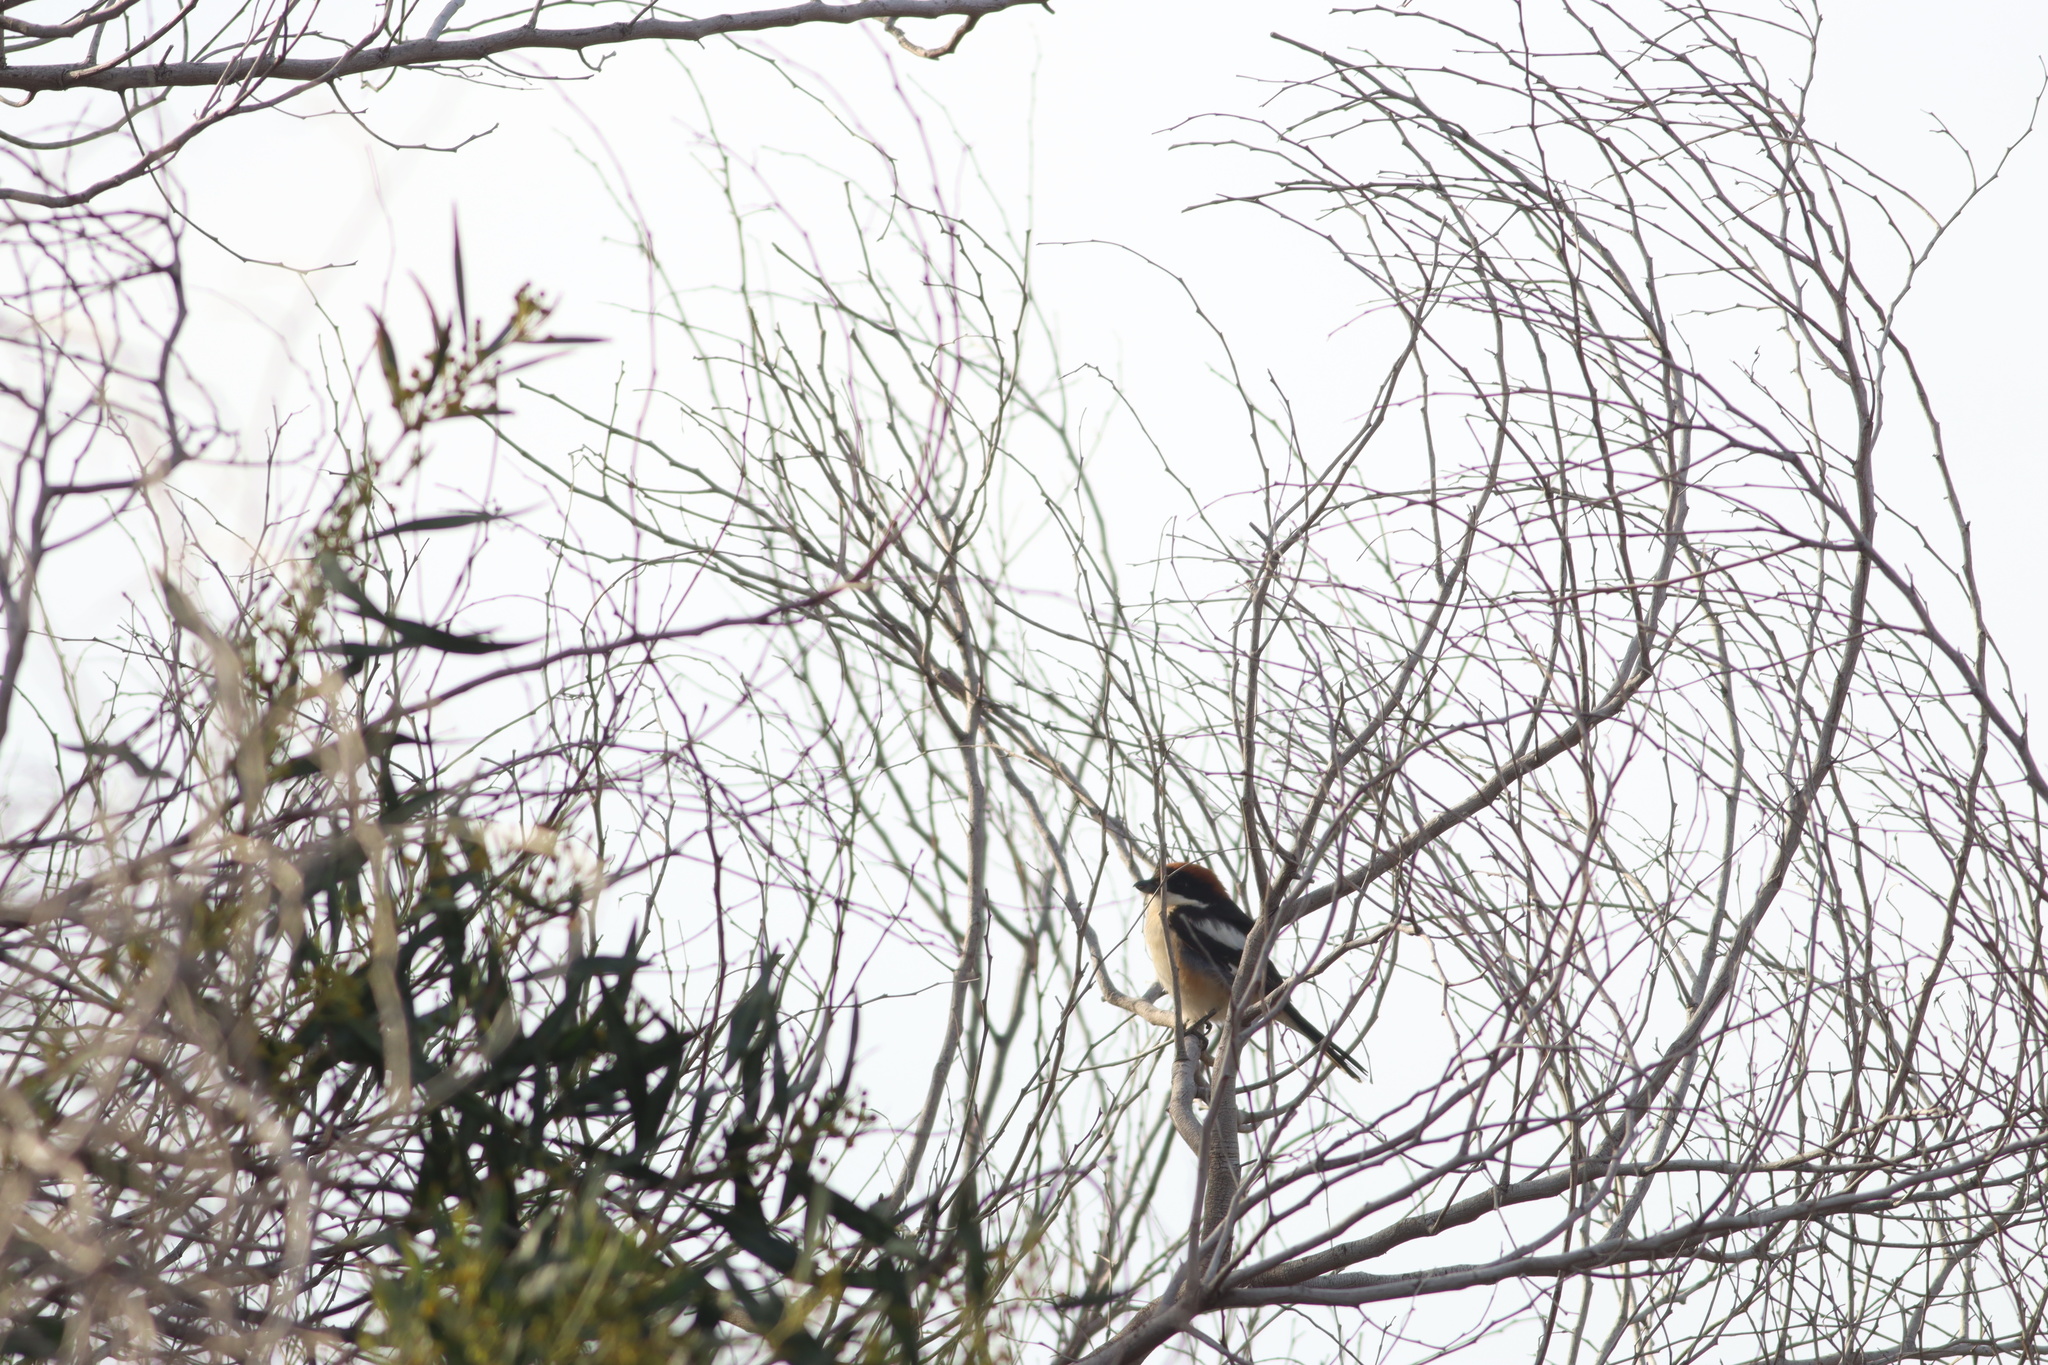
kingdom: Animalia
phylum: Chordata
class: Aves
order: Passeriformes
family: Laniidae
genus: Lanius
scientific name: Lanius senator
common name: Woodchat shrike
